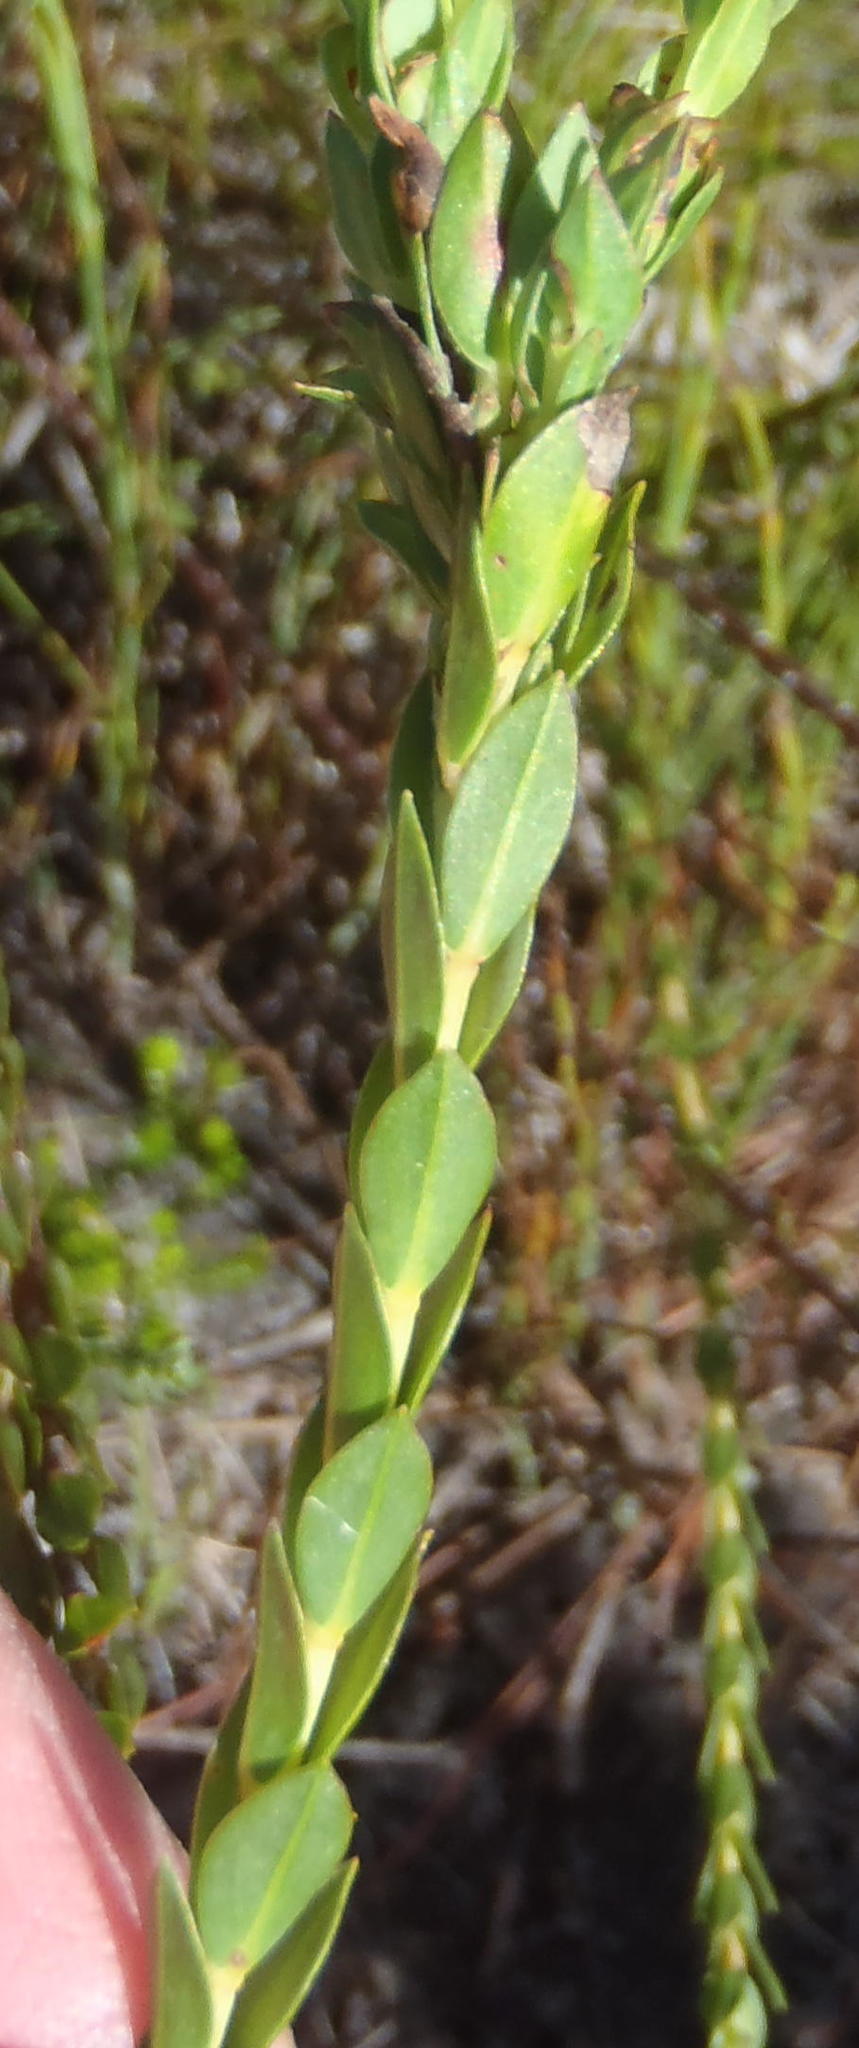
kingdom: Plantae
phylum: Tracheophyta
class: Magnoliopsida
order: Malvales
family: Thymelaeaceae
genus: Gnidia
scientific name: Gnidia oppositifolia
